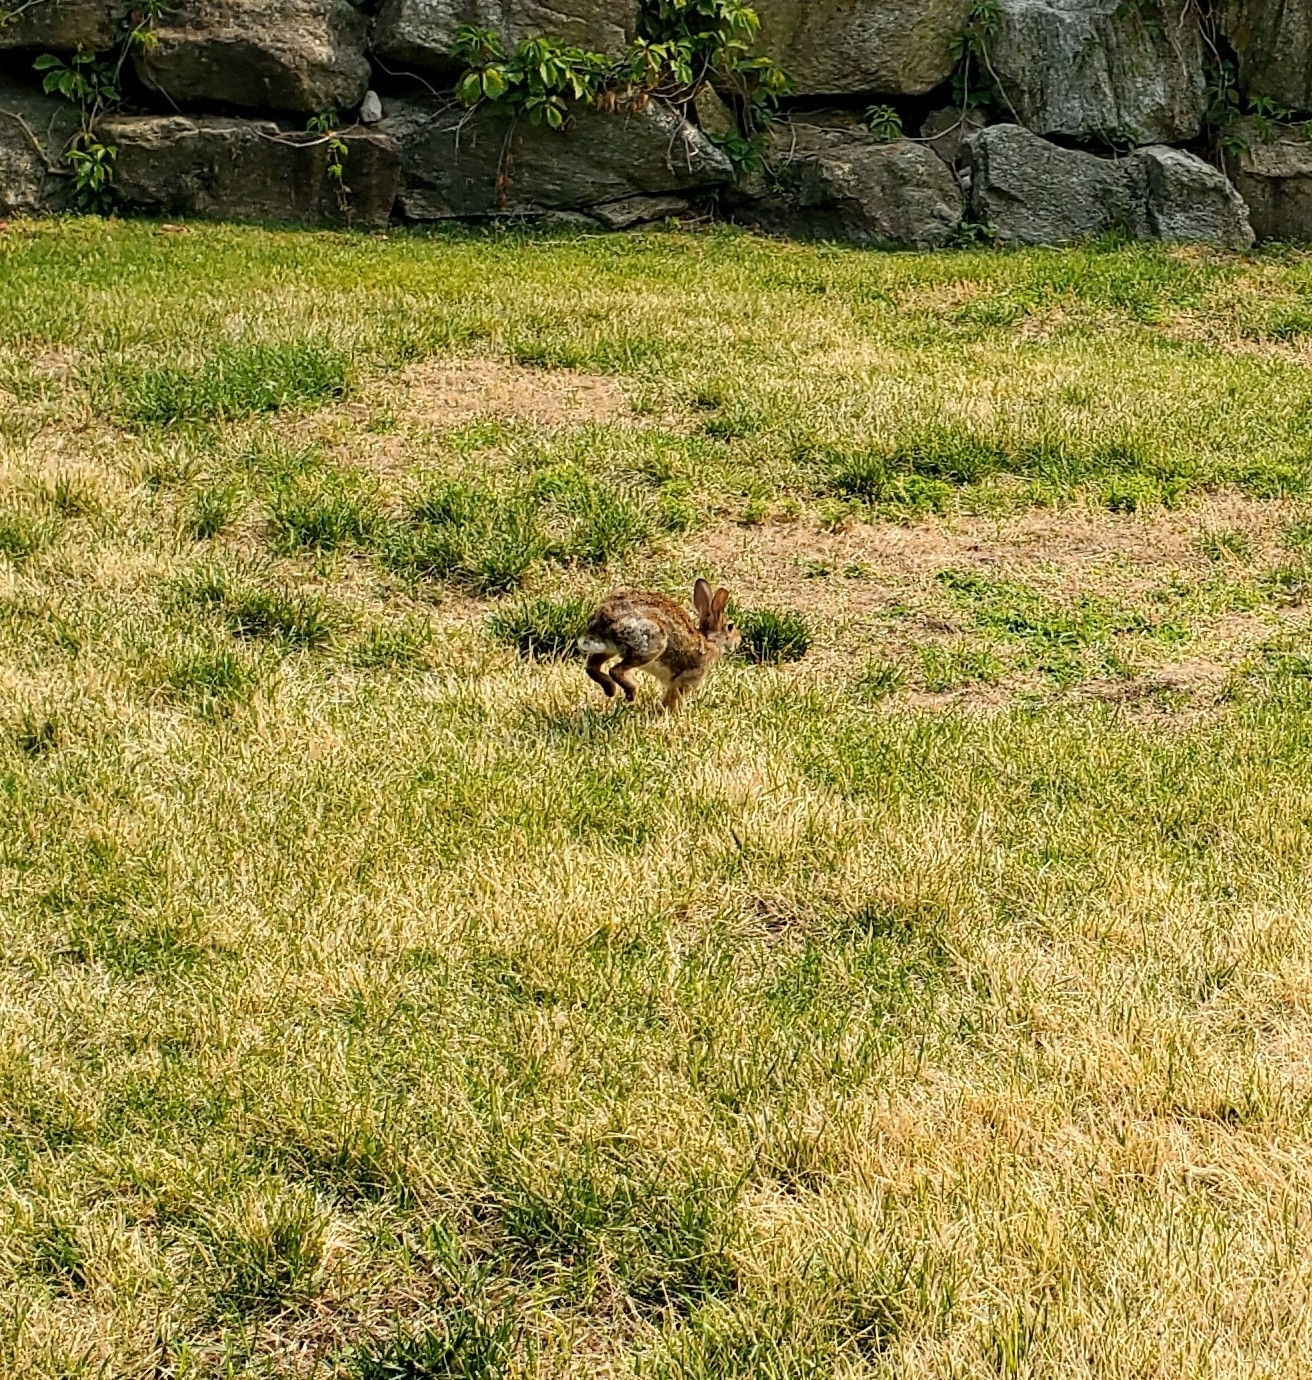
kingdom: Animalia
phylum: Chordata
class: Mammalia
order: Lagomorpha
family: Leporidae
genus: Sylvilagus
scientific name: Sylvilagus floridanus
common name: Eastern cottontail
